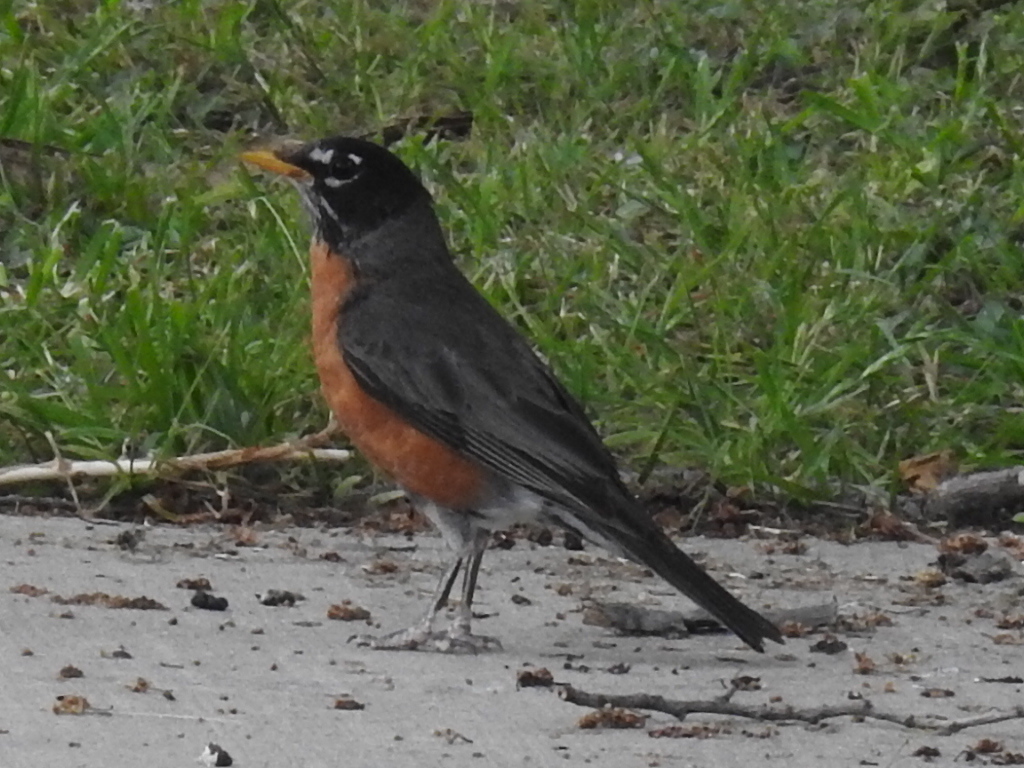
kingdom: Animalia
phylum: Chordata
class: Aves
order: Passeriformes
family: Turdidae
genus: Turdus
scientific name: Turdus migratorius
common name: American robin
